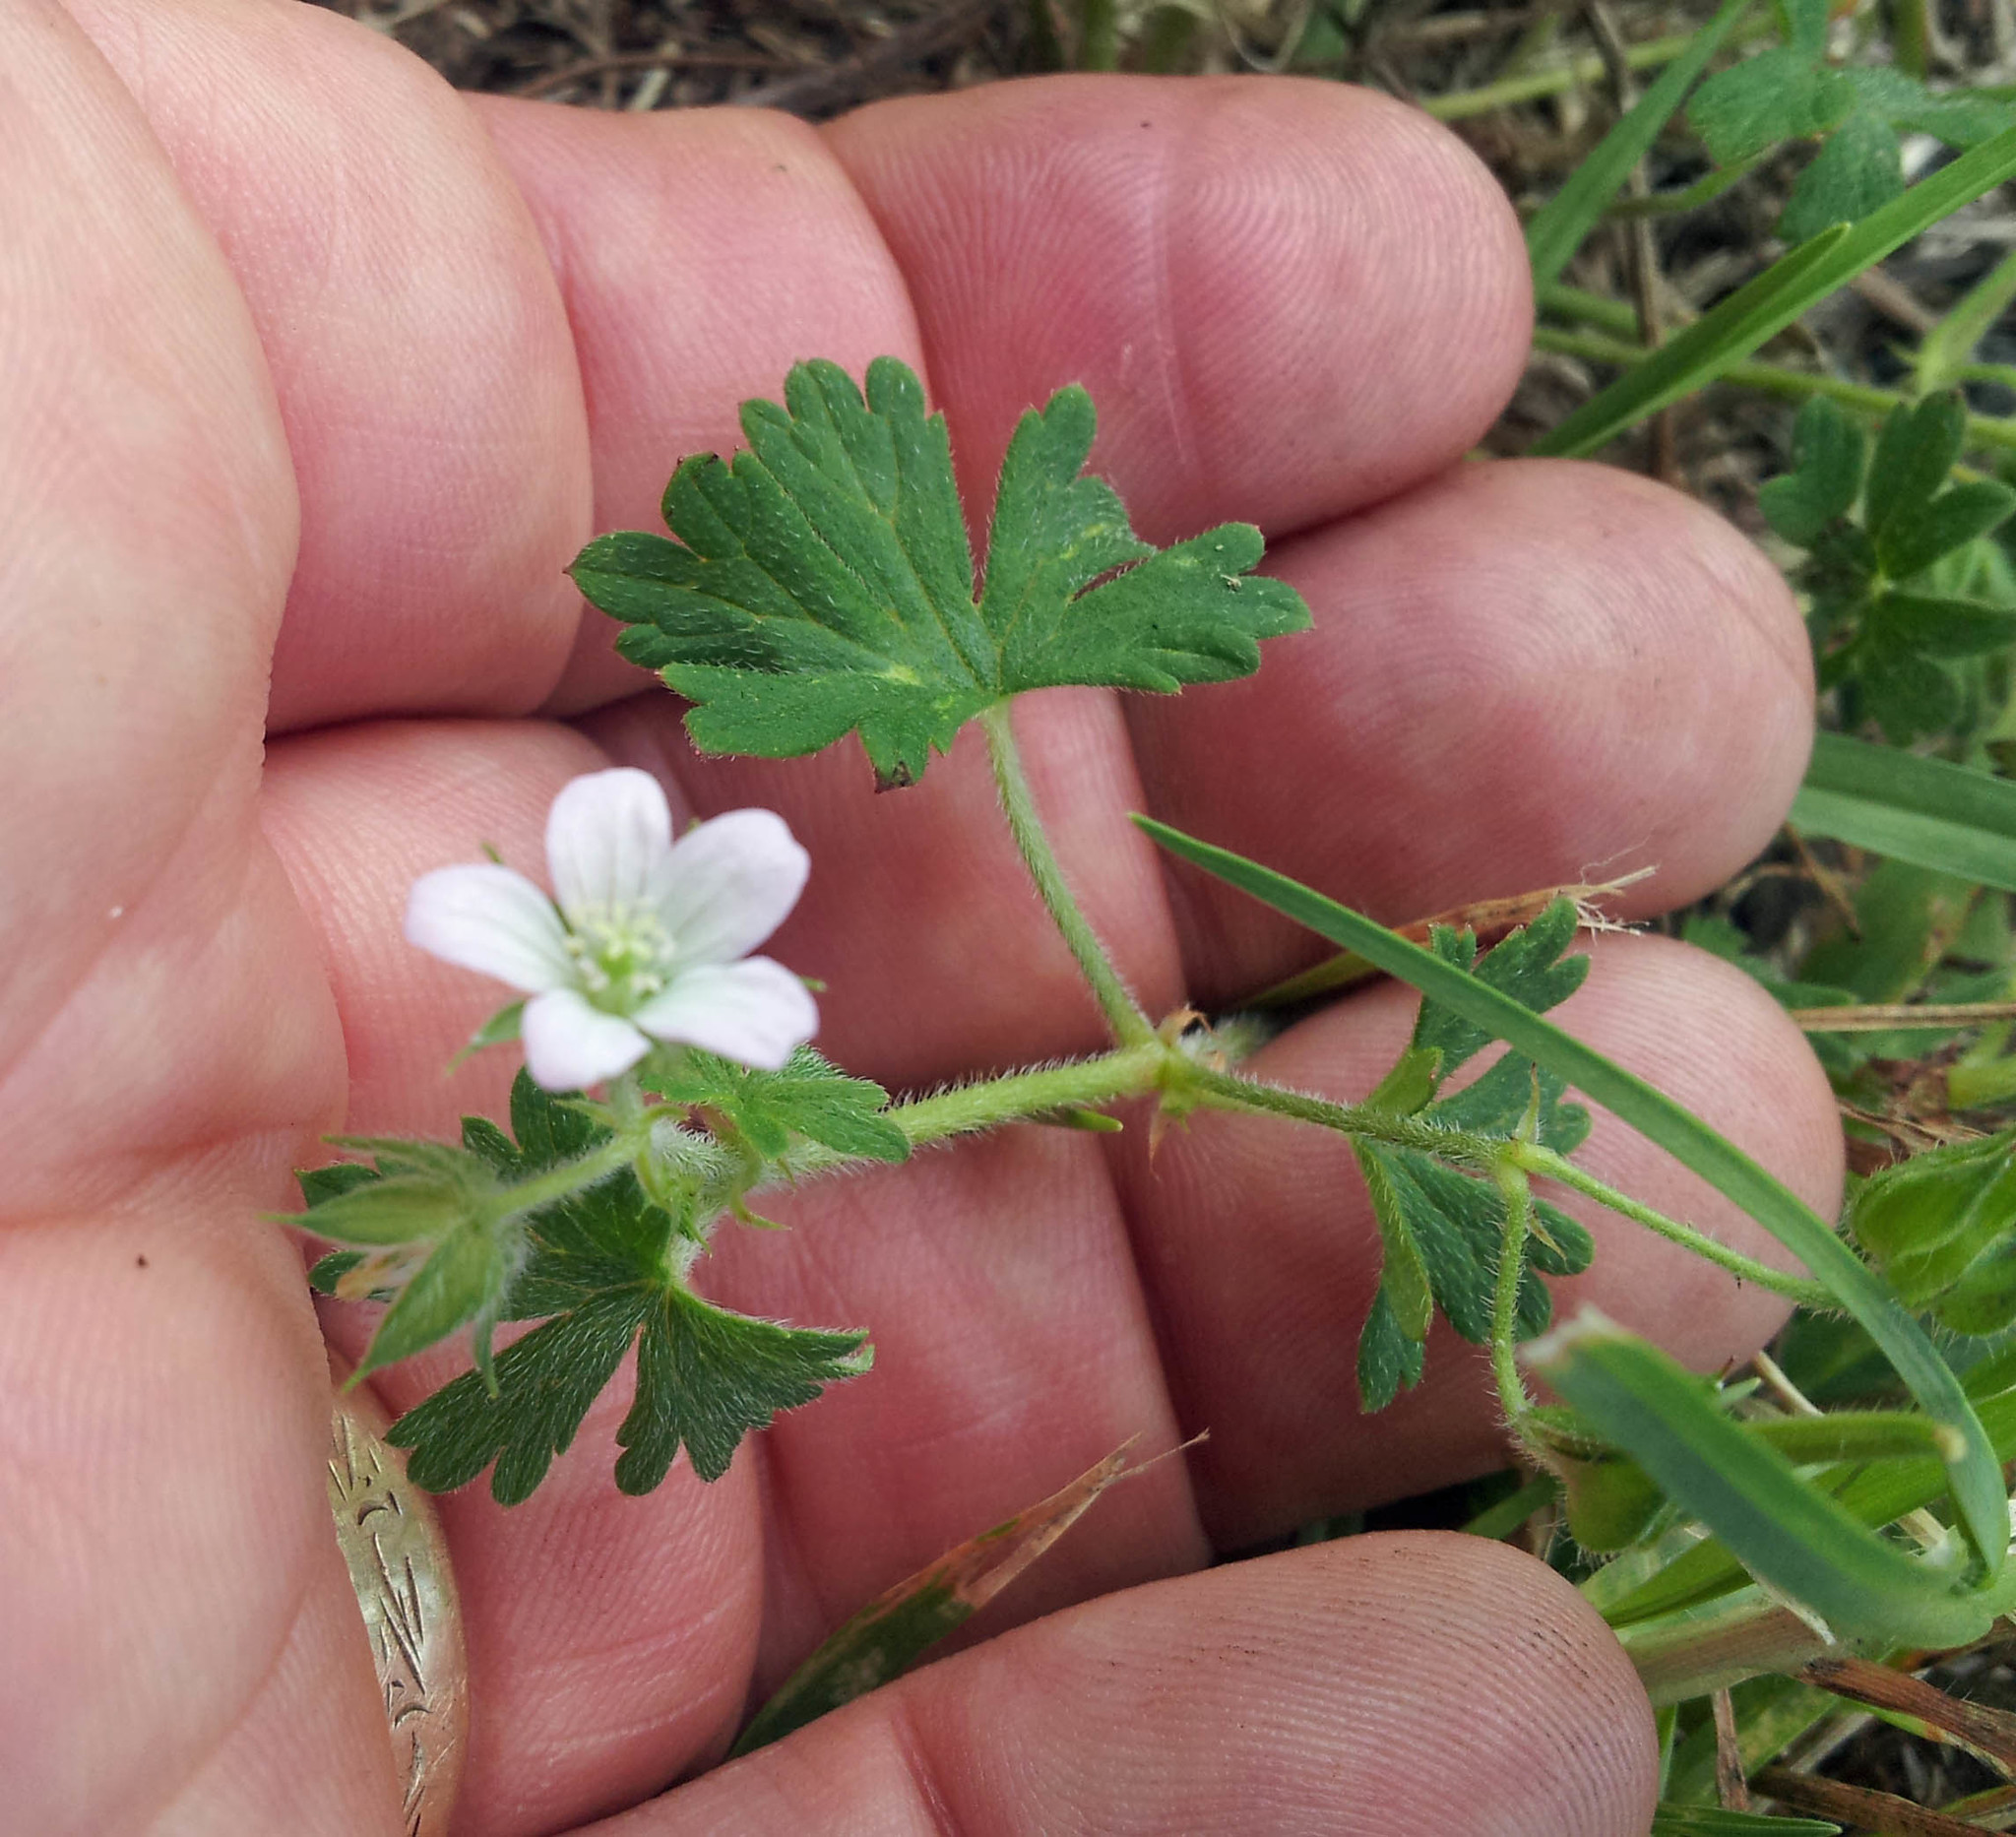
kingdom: Plantae
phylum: Tracheophyta
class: Magnoliopsida
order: Geraniales
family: Geraniaceae
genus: Geranium
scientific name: Geranium gardneri
